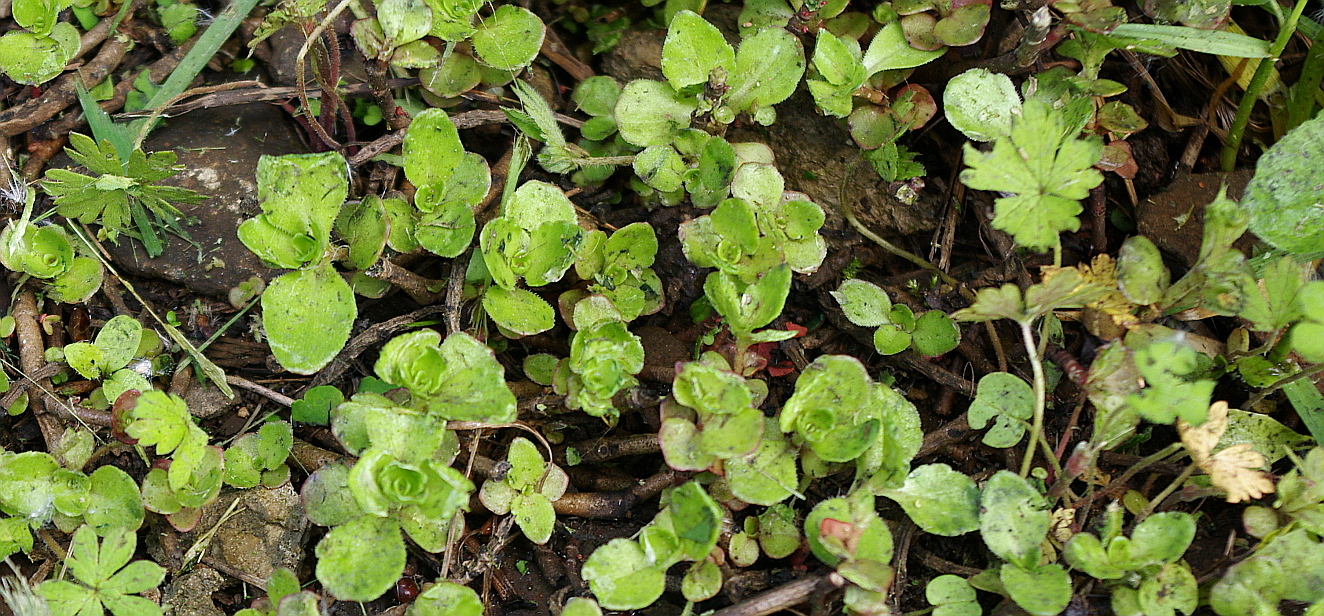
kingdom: Plantae
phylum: Tracheophyta
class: Magnoliopsida
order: Saxifragales
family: Crassulaceae
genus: Phedimus
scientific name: Phedimus spurius
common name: Caucasian stonecrop
